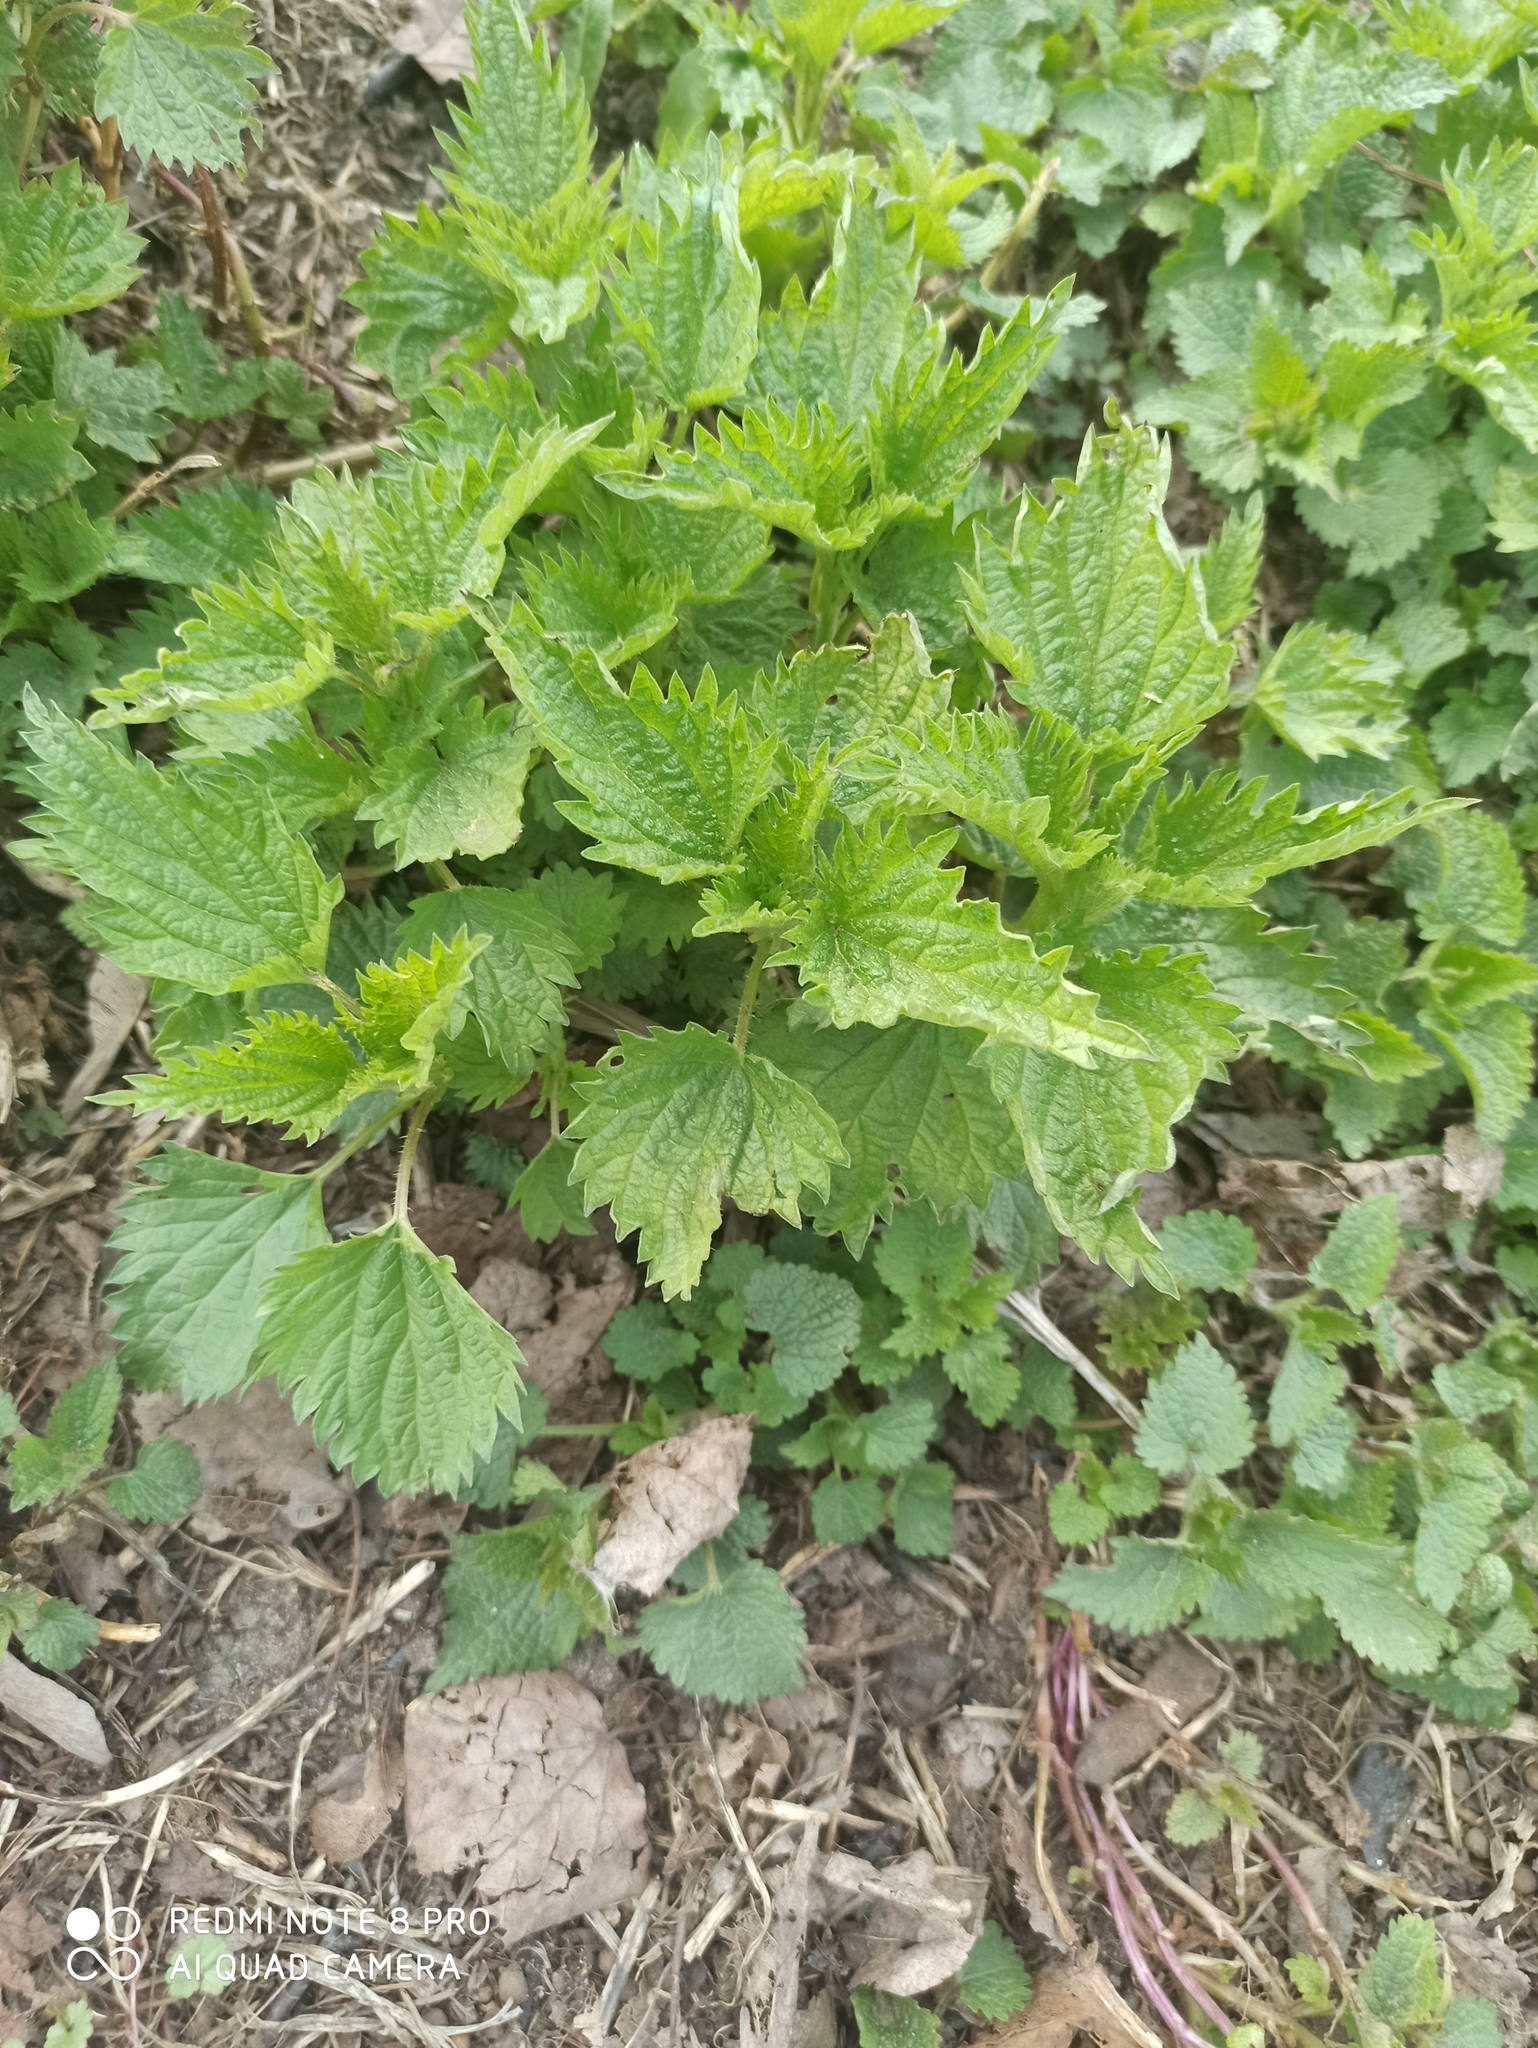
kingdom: Plantae
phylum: Tracheophyta
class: Magnoliopsida
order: Rosales
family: Urticaceae
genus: Urtica
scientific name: Urtica dioica
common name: Common nettle
